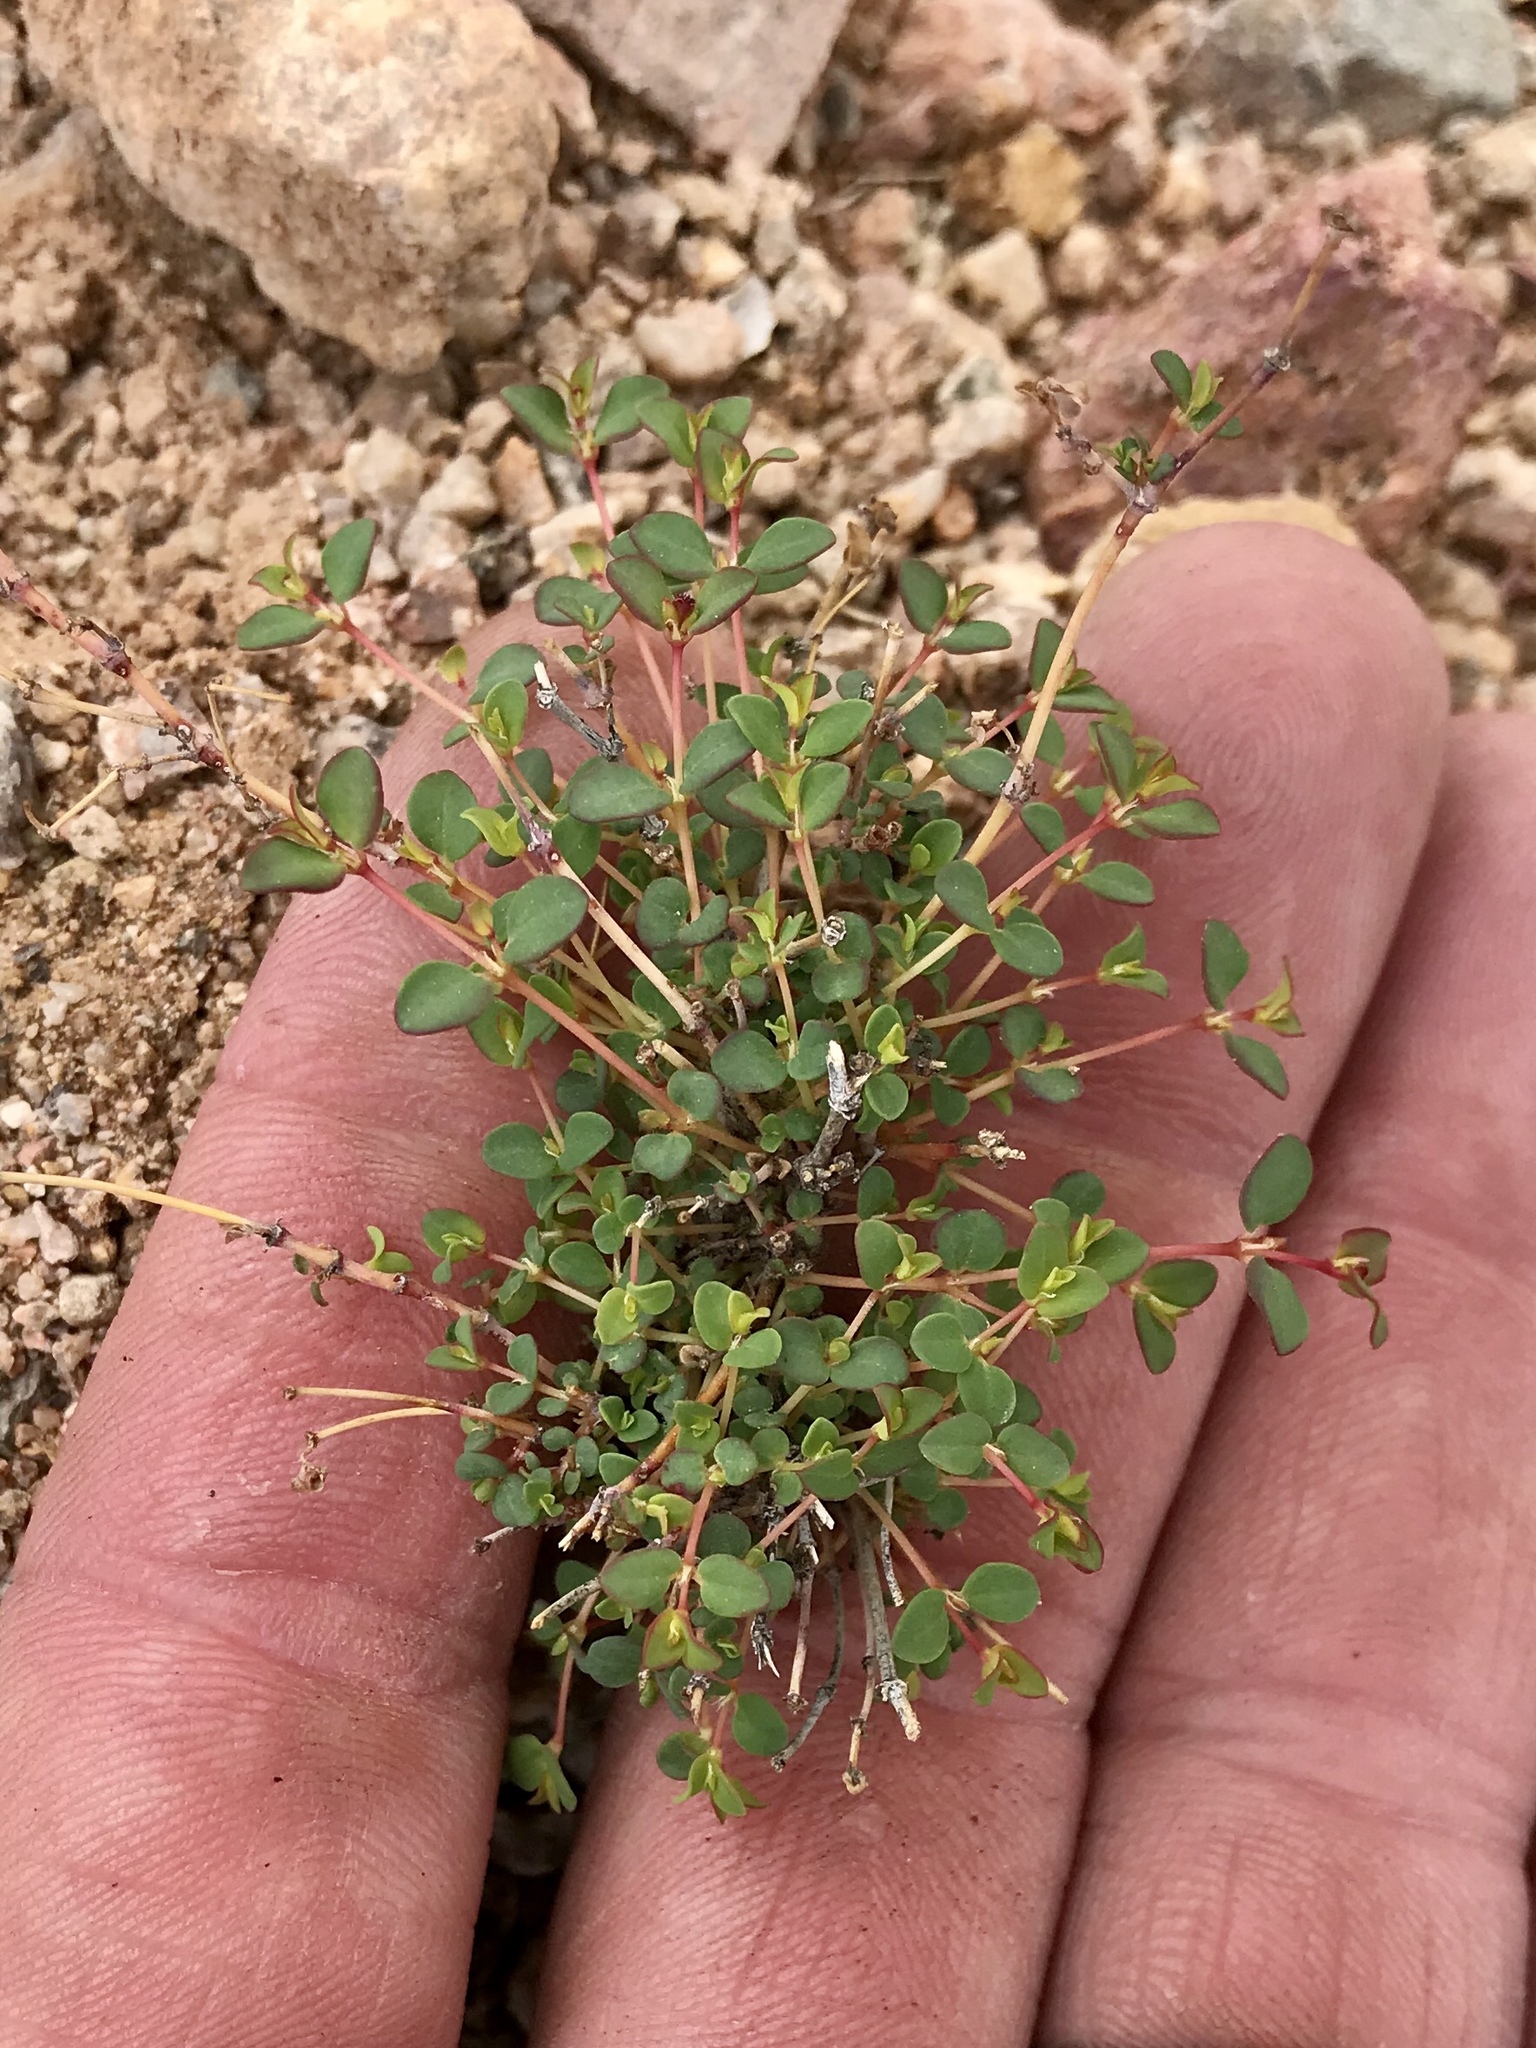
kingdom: Plantae
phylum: Tracheophyta
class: Magnoliopsida
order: Malpighiales
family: Euphorbiaceae
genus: Euphorbia
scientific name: Euphorbia polycarpa
